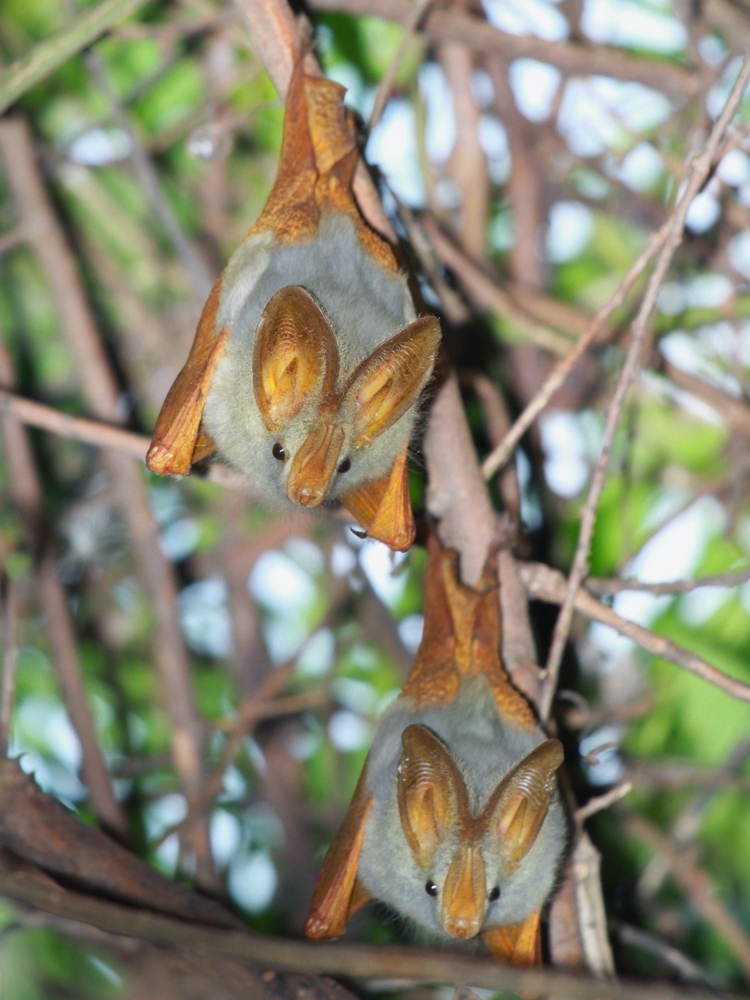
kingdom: Animalia
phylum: Chordata
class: Mammalia
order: Chiroptera
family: Megadermatidae
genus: Lavia
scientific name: Lavia frons
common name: Yellow-winged bat
